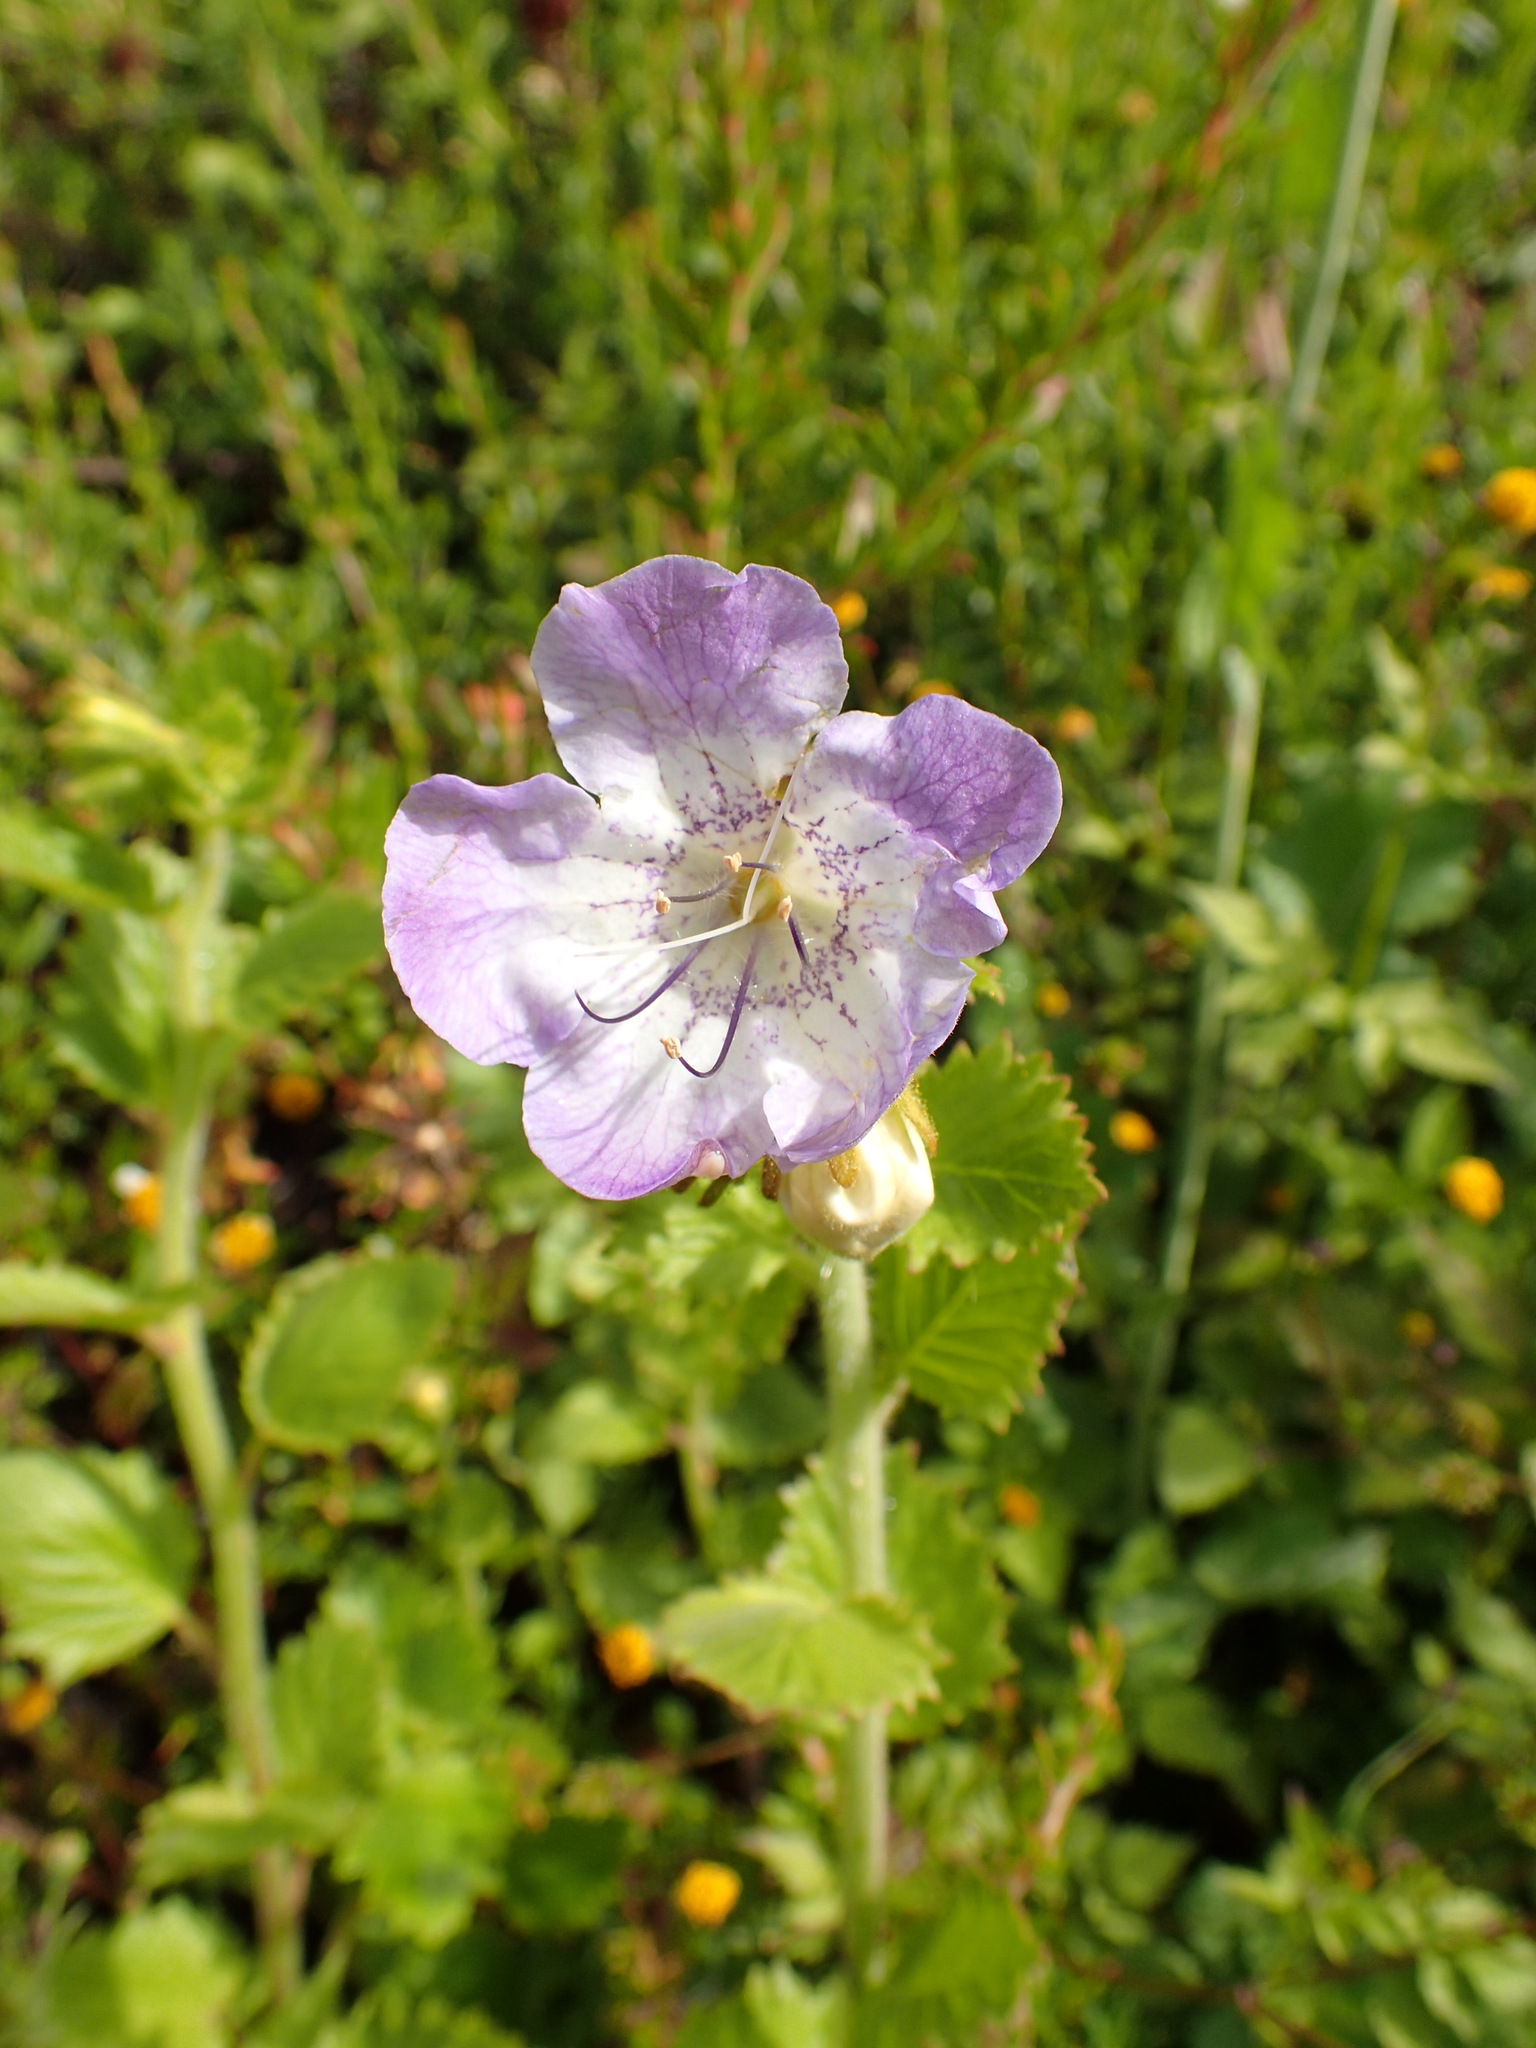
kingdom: Plantae
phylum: Tracheophyta
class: Magnoliopsida
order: Boraginales
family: Hydrophyllaceae
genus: Phacelia
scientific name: Phacelia grandiflora
